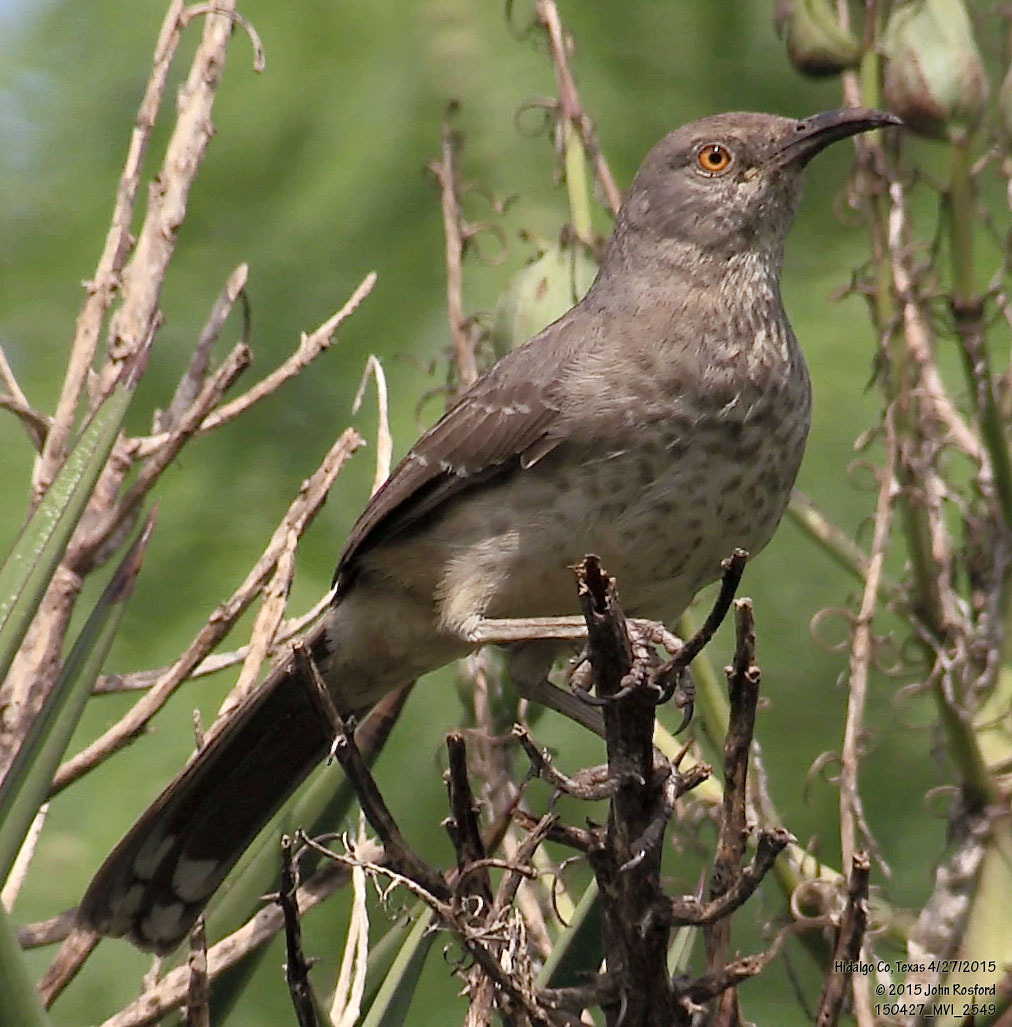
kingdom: Animalia
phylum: Chordata
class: Aves
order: Passeriformes
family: Mimidae
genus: Toxostoma
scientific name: Toxostoma curvirostre
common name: Curve-billed thrasher
